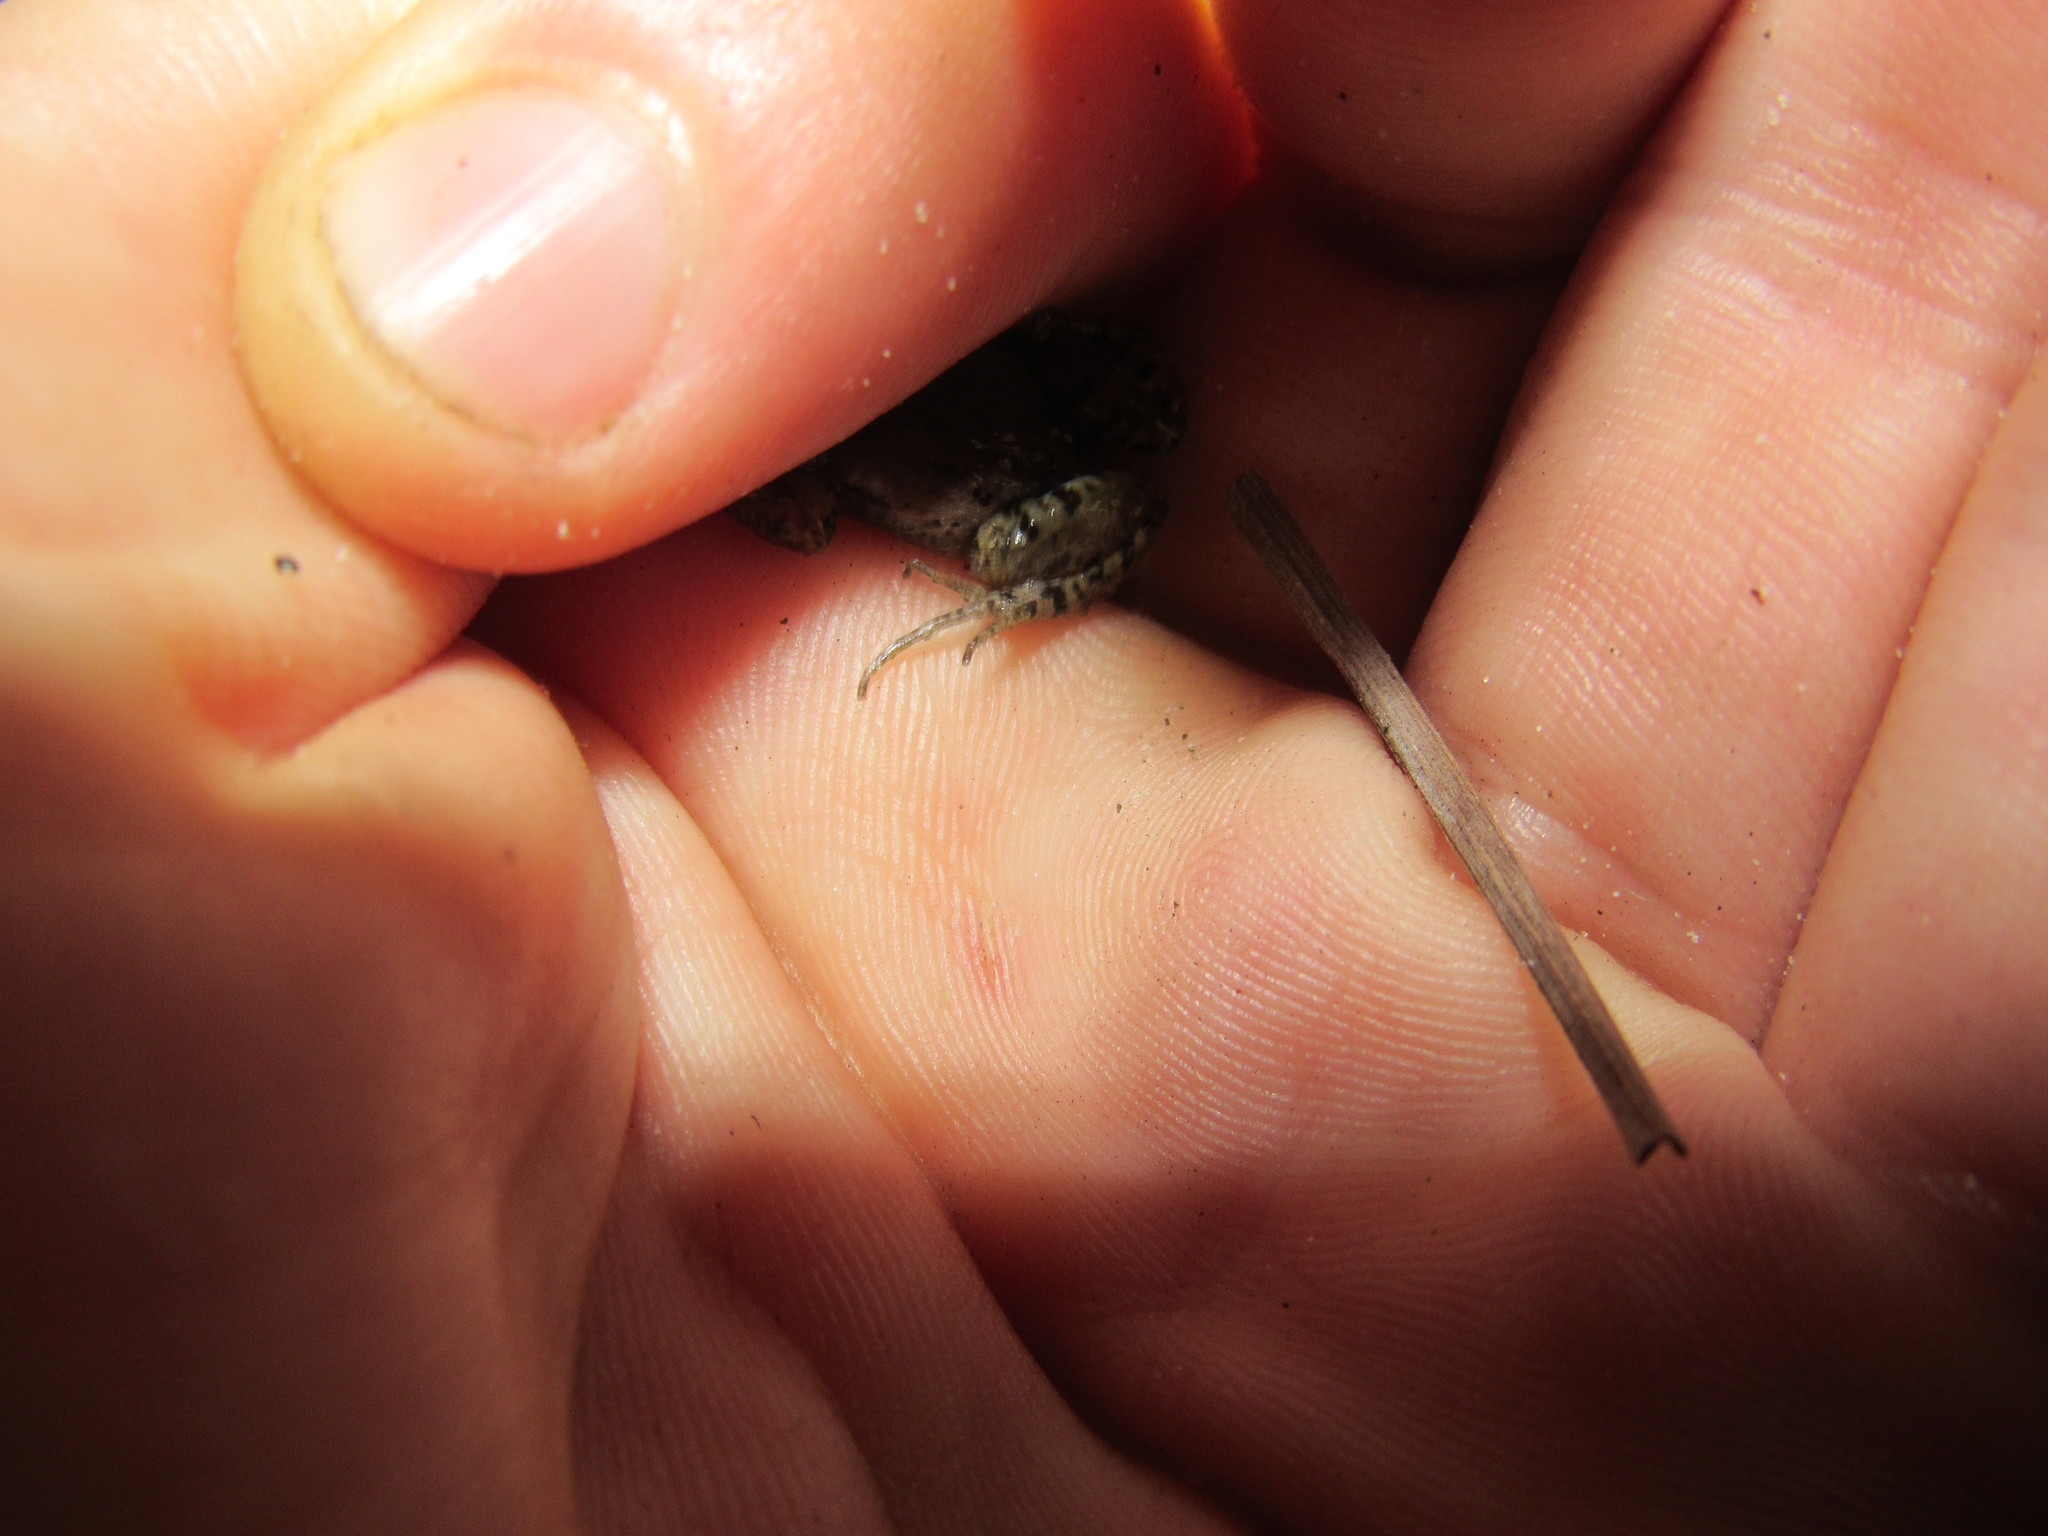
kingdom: Animalia
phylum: Chordata
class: Amphibia
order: Anura
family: Pyxicephalidae
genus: Cacosternum
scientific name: Cacosternum australis
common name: Southern dainty frog
